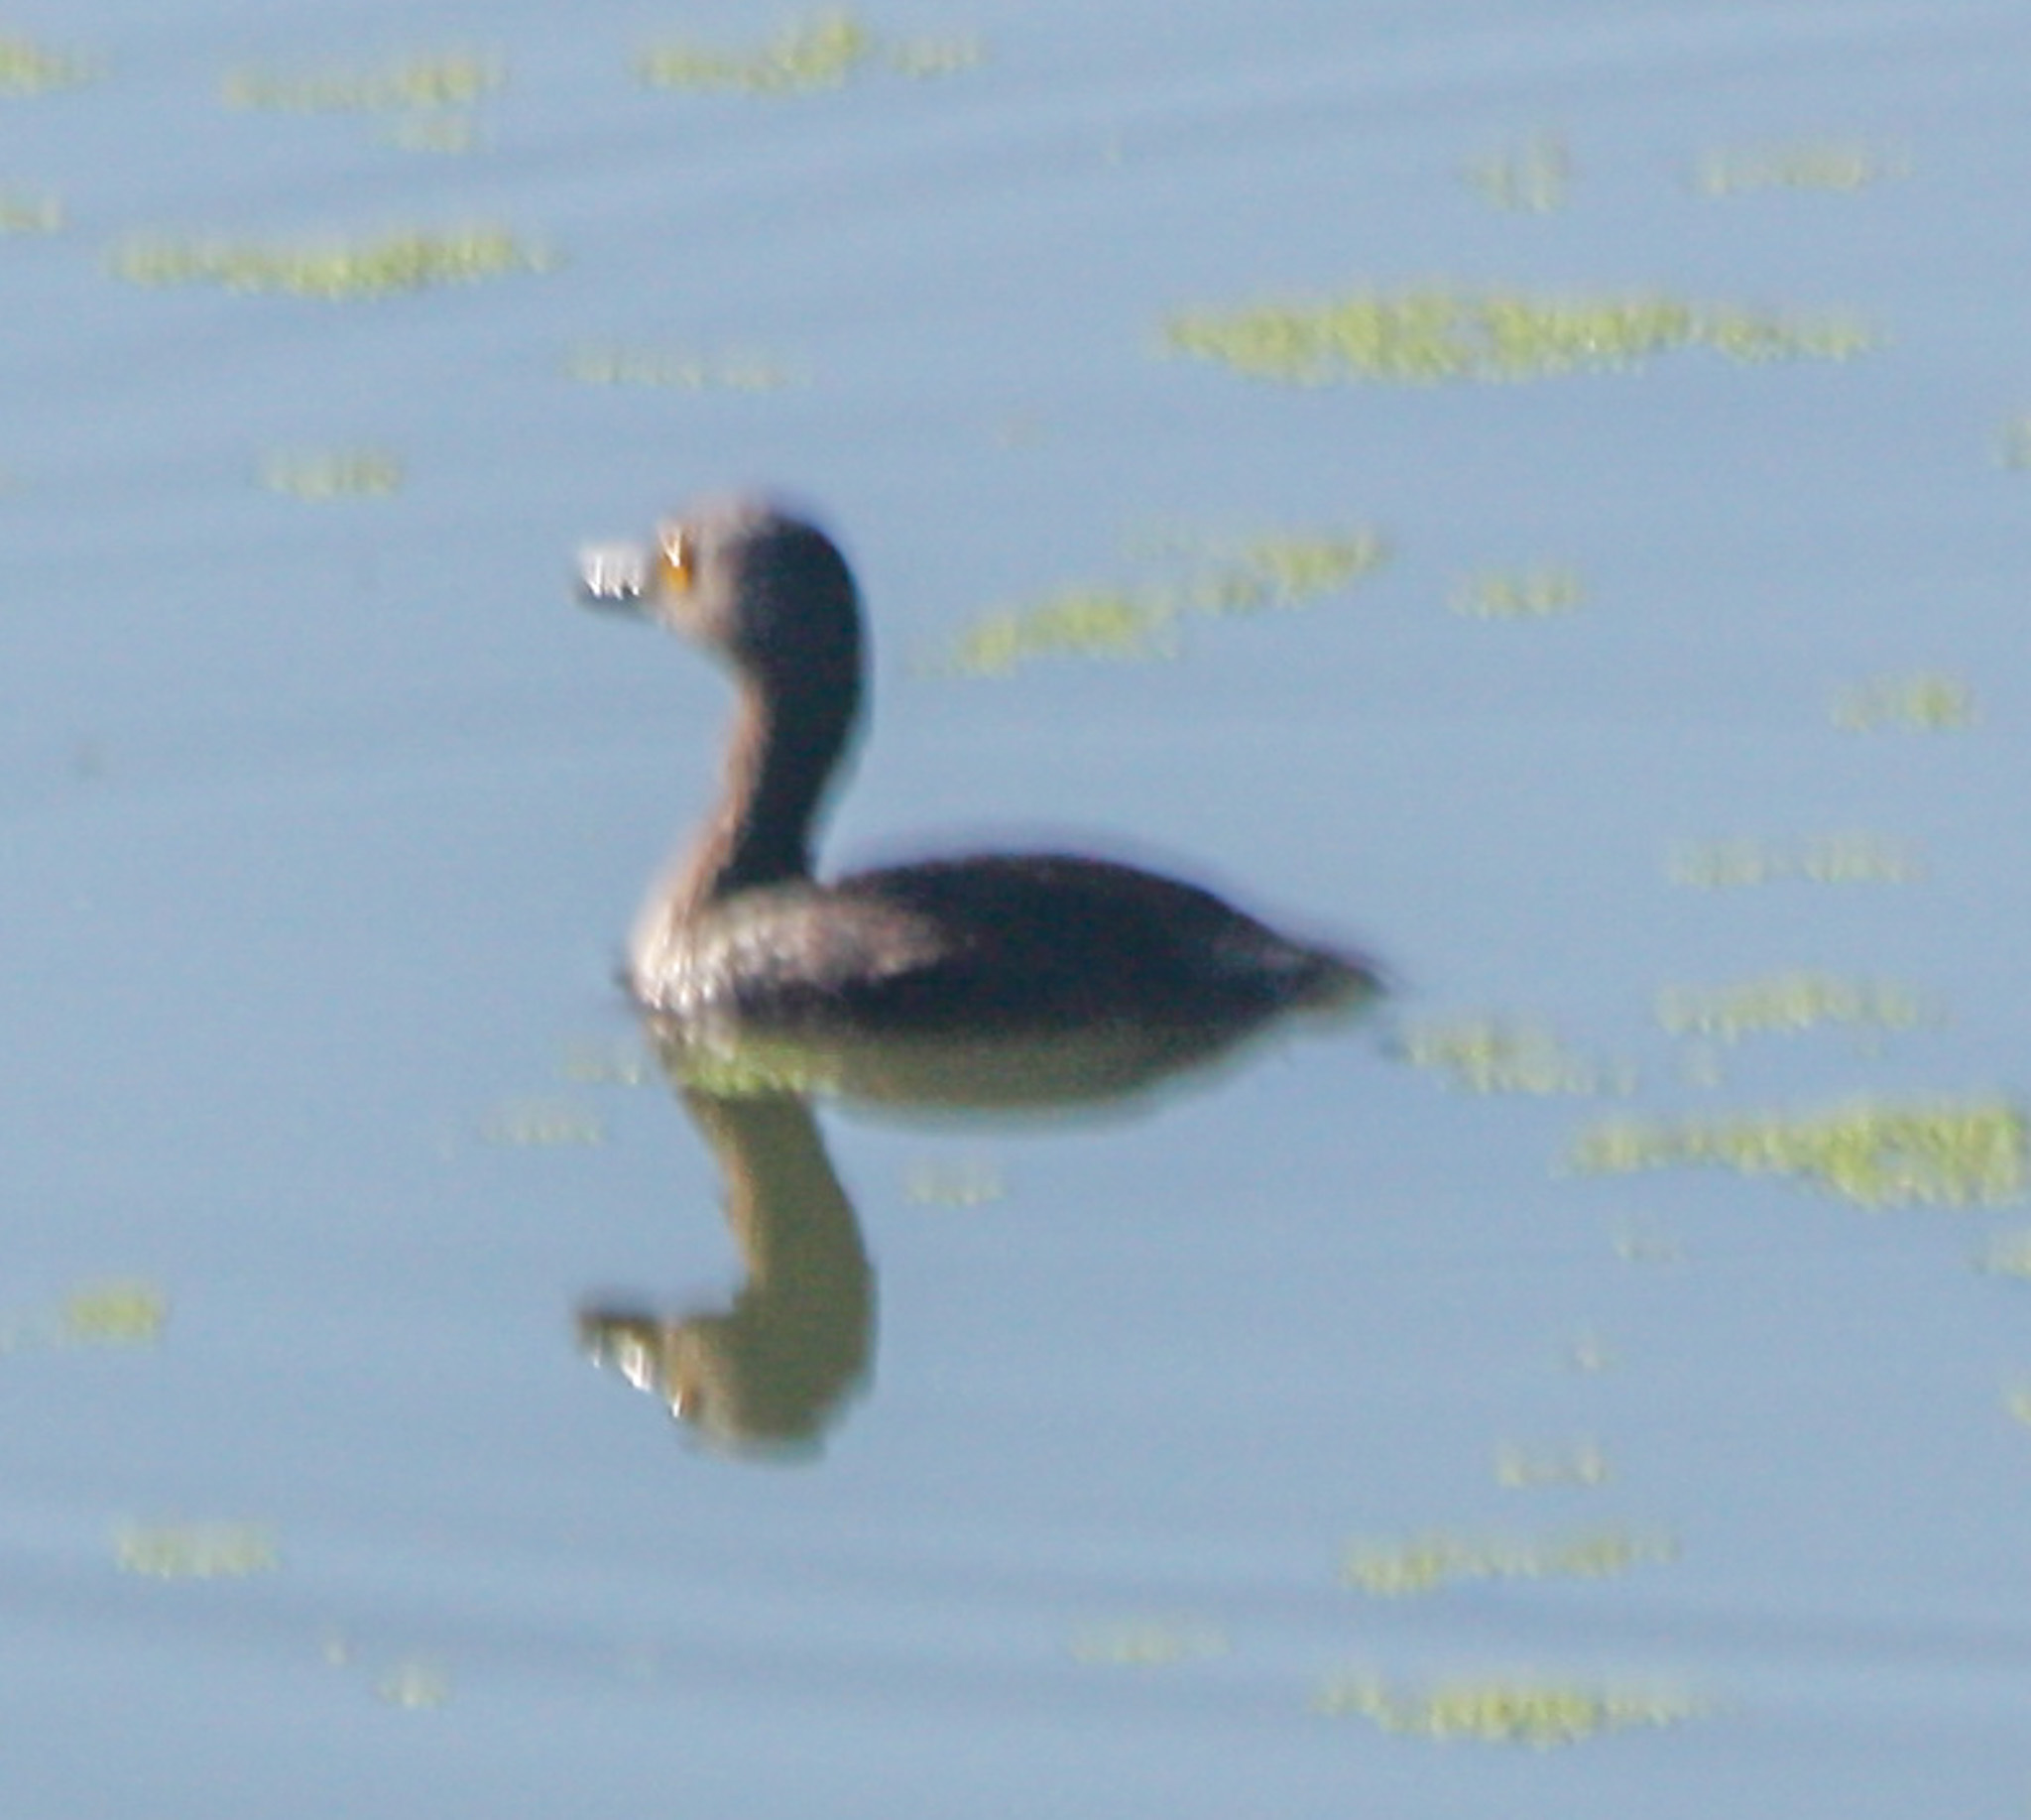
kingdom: Animalia
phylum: Chordata
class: Aves
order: Podicipediformes
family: Podicipedidae
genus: Tachybaptus
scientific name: Tachybaptus dominicus
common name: Least grebe
